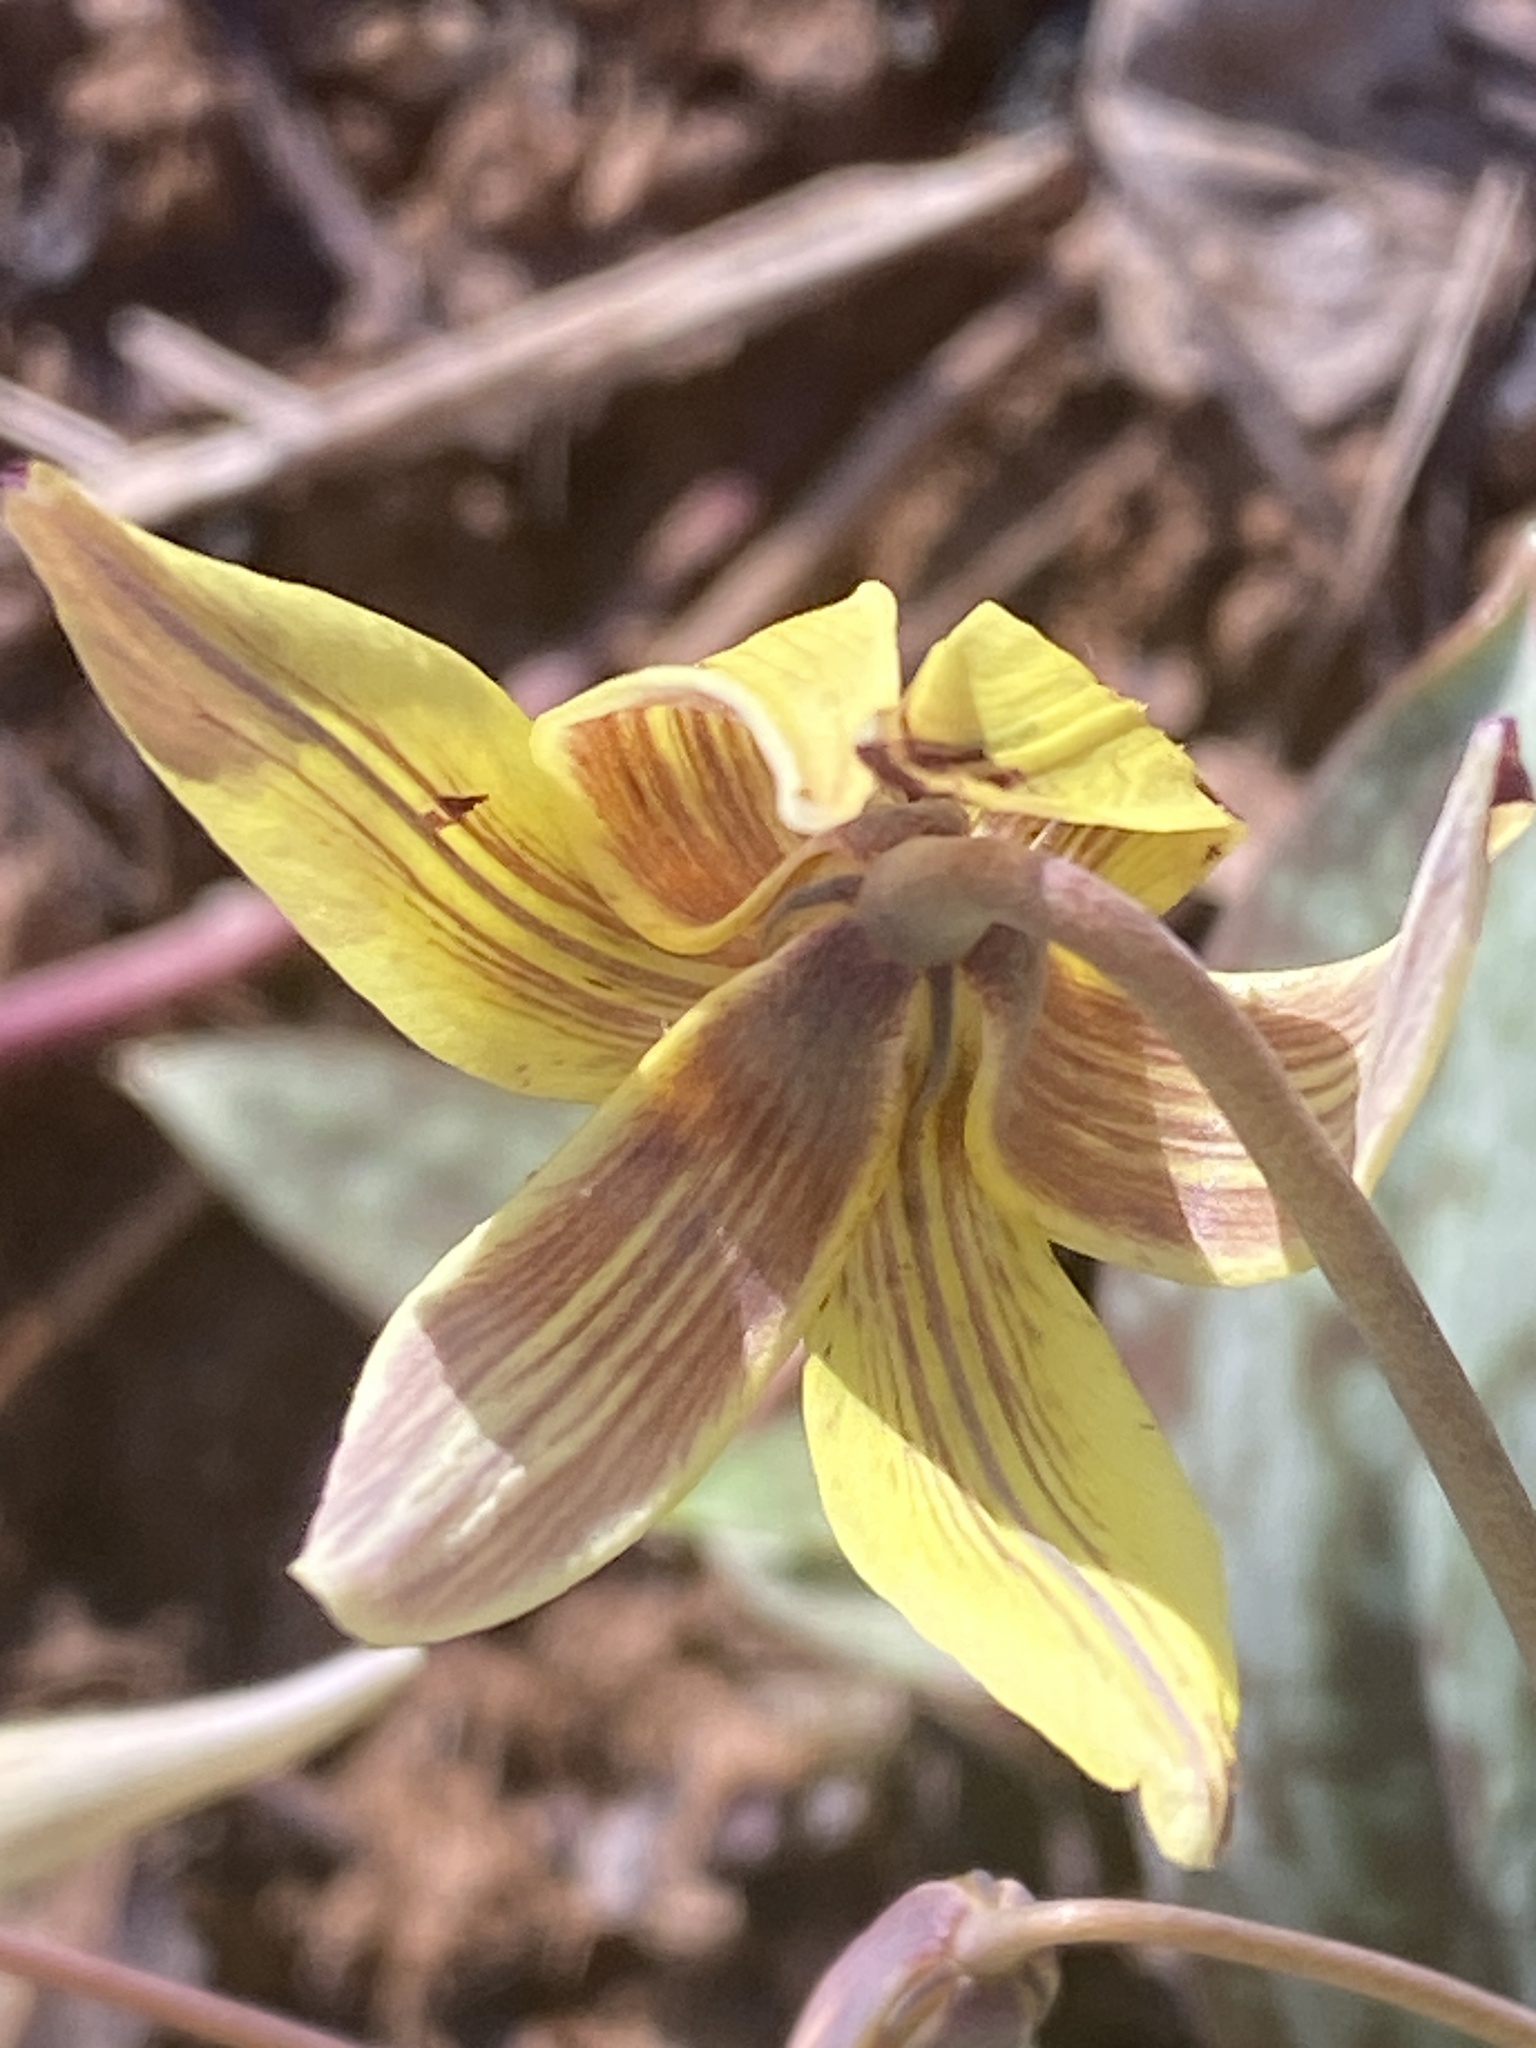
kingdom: Plantae
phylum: Tracheophyta
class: Liliopsida
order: Liliales
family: Liliaceae
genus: Erythronium
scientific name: Erythronium umbilicatum
